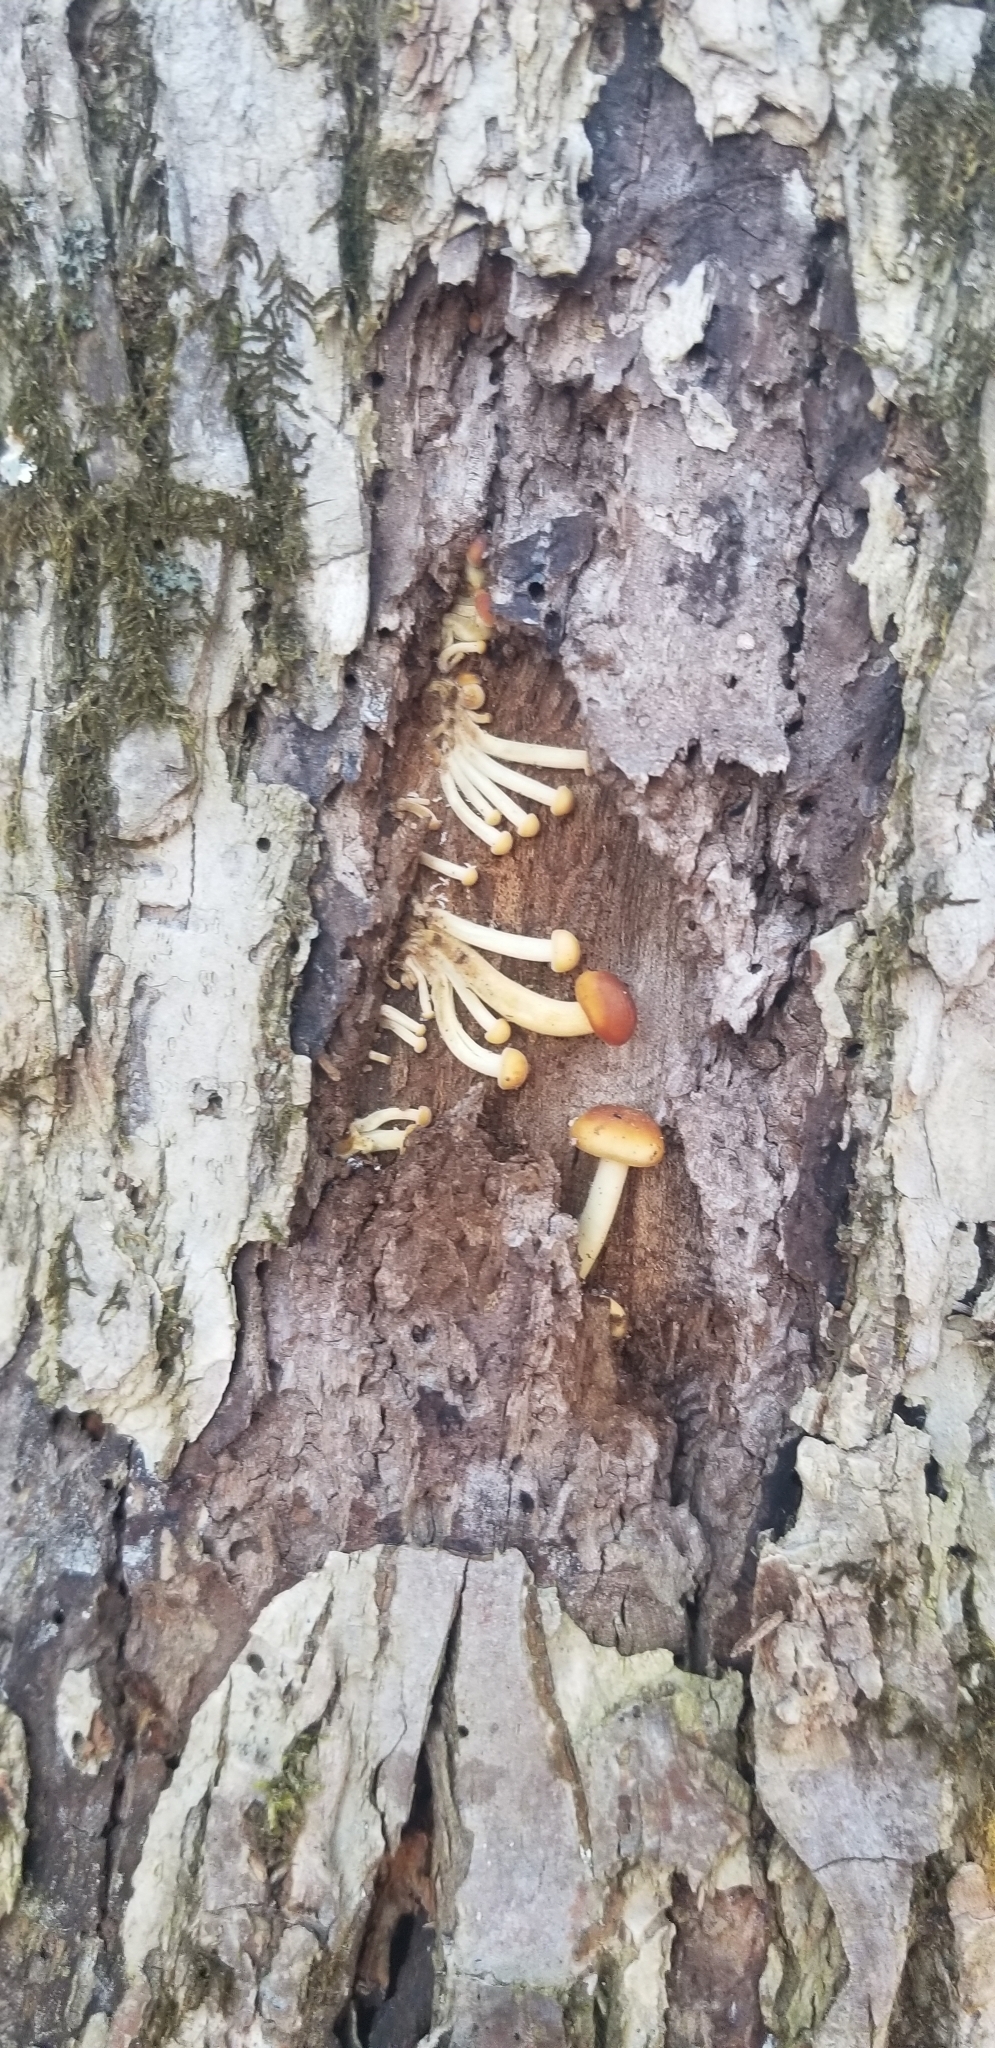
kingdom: Fungi
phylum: Basidiomycota
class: Agaricomycetes
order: Agaricales
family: Physalacriaceae
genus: Flammulina
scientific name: Flammulina velutipes
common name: Velvet shank
